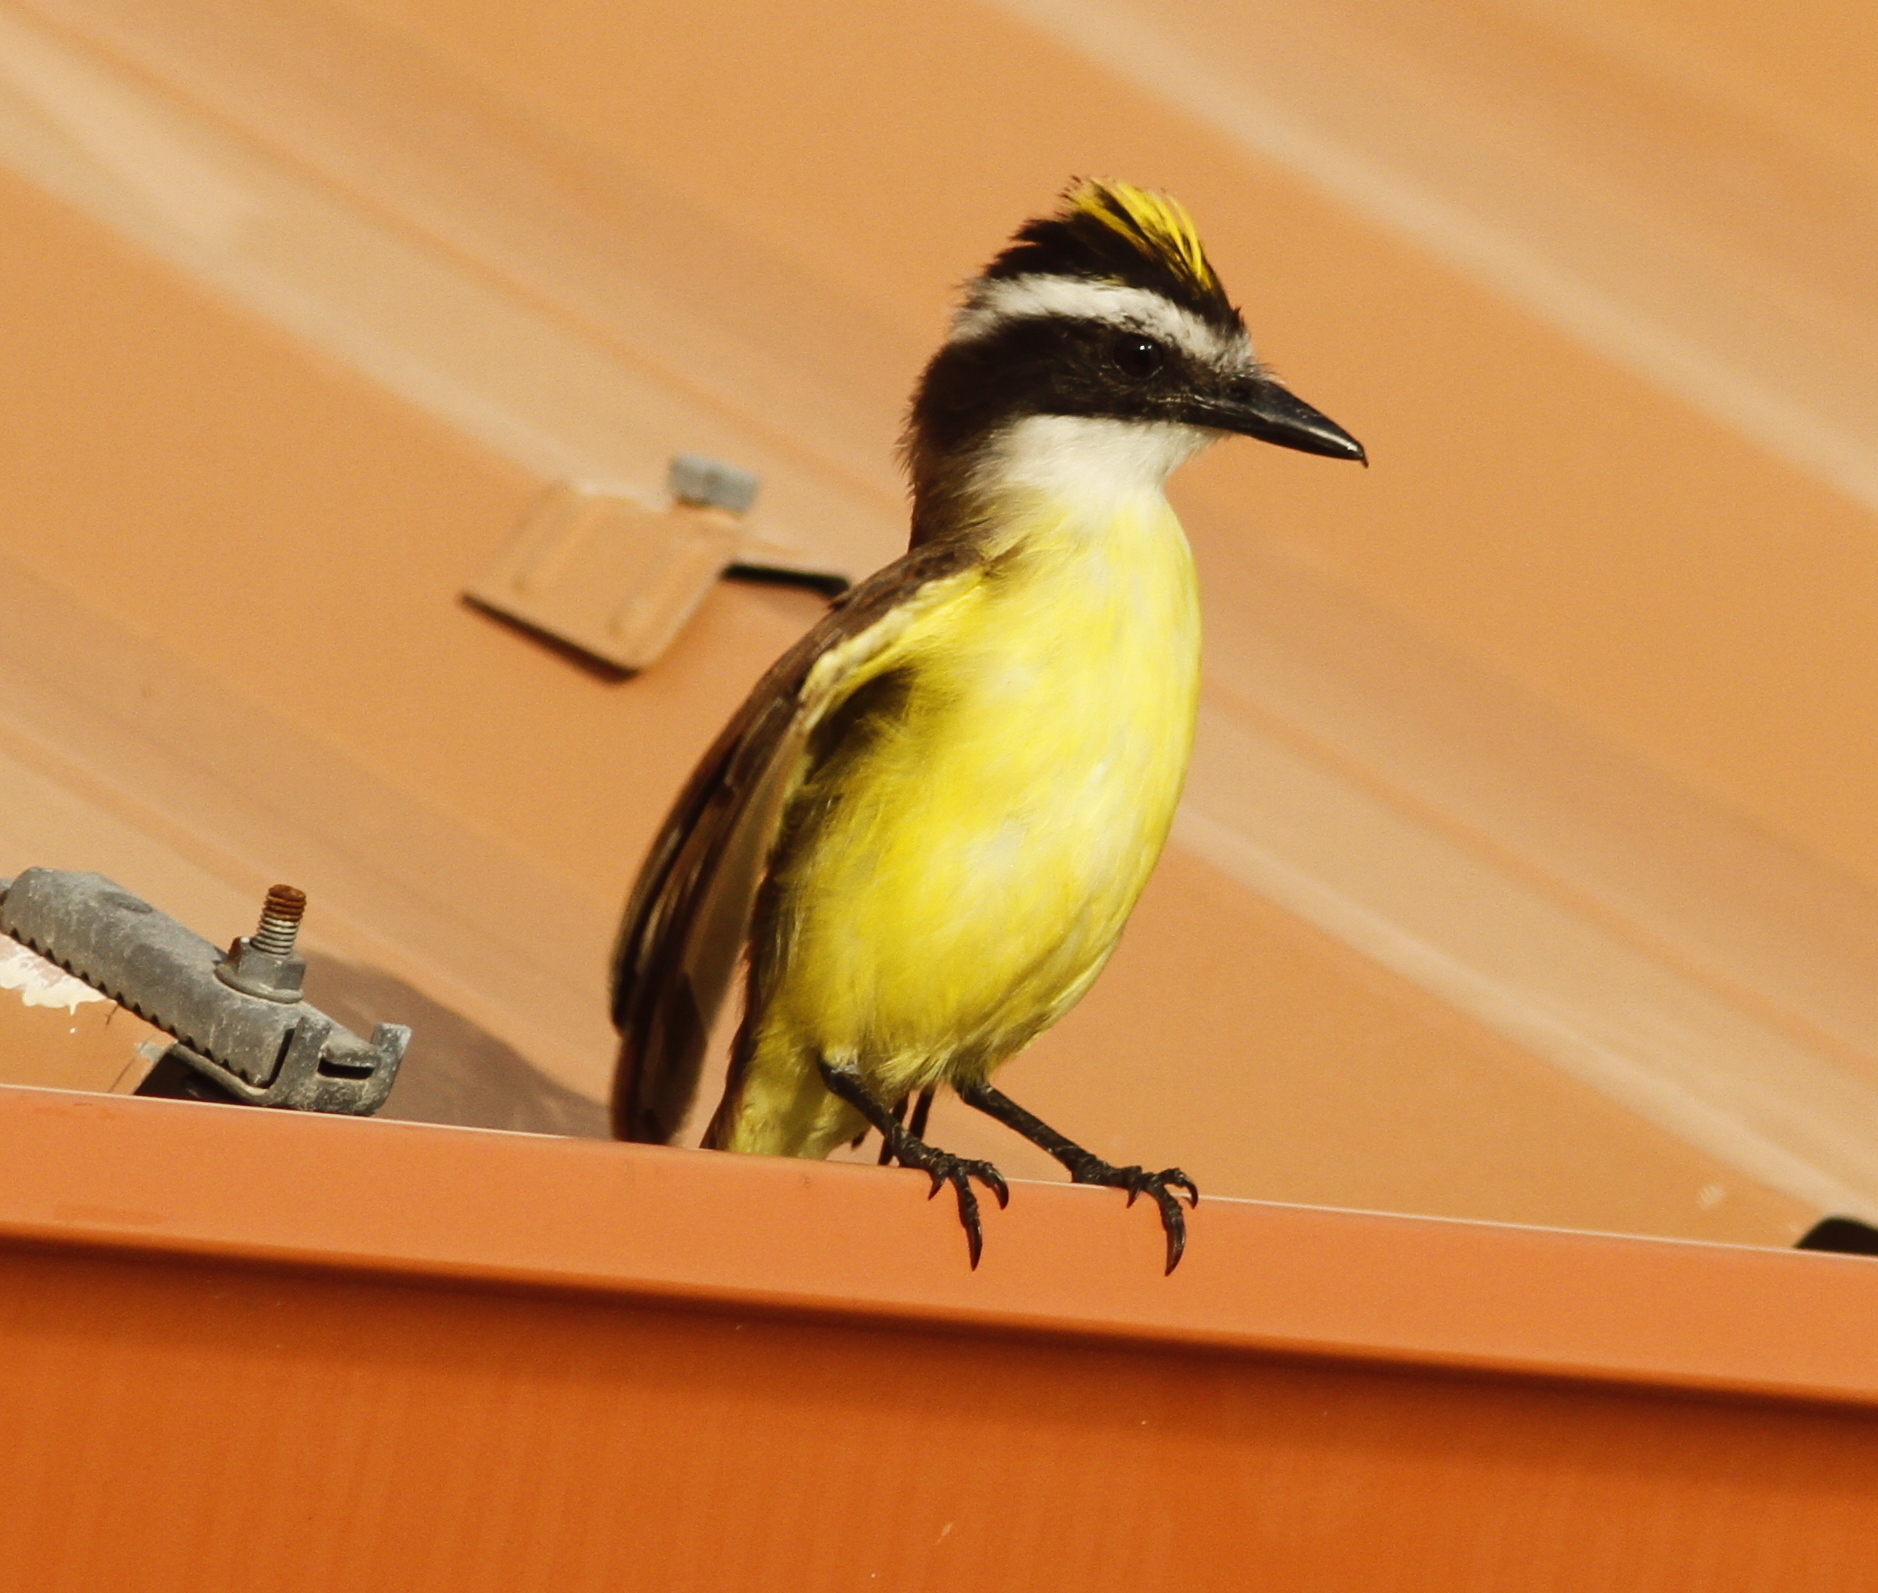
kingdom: Animalia
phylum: Chordata
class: Aves
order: Passeriformes
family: Tyrannidae
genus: Pitangus
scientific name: Pitangus sulphuratus
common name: Great kiskadee
